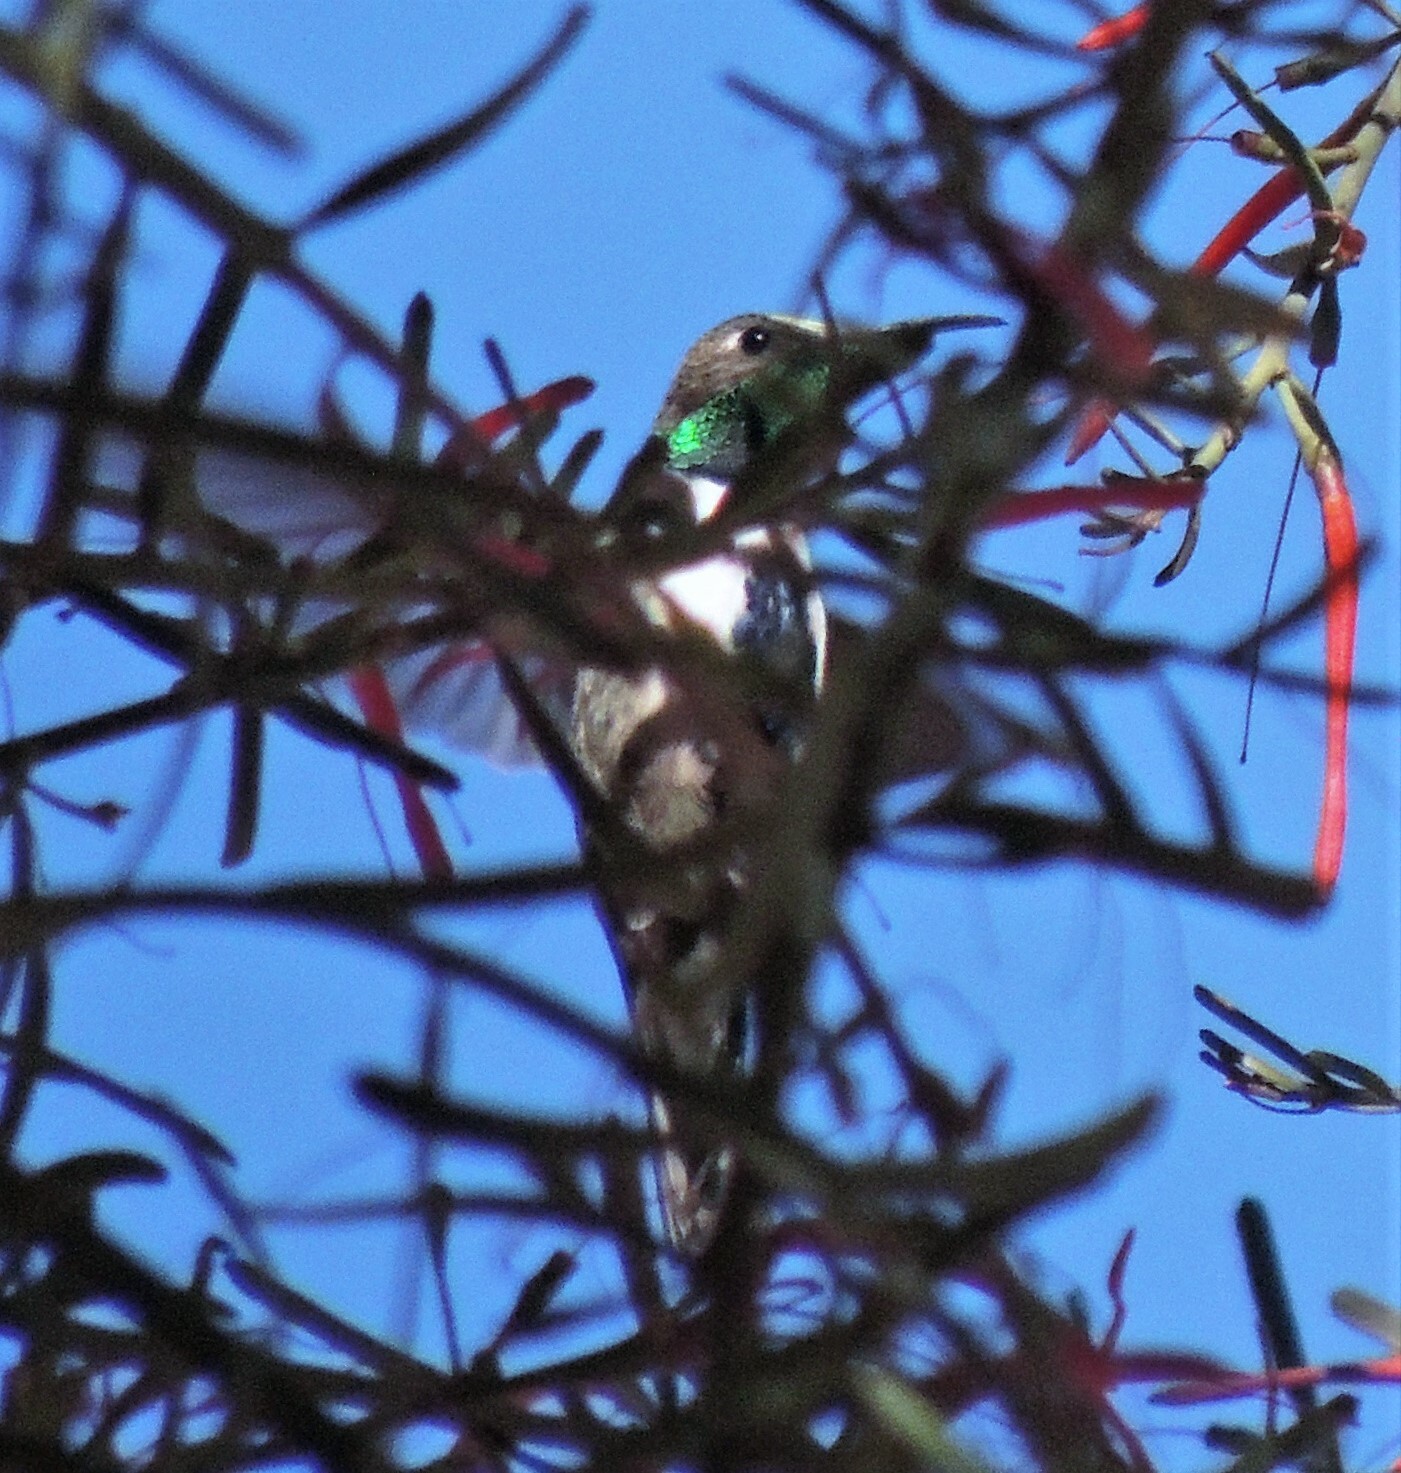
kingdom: Animalia
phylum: Chordata
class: Aves
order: Apodiformes
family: Trochilidae
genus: Oreotrochilus
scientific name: Oreotrochilus leucopleurus
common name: White-sided hillstar
